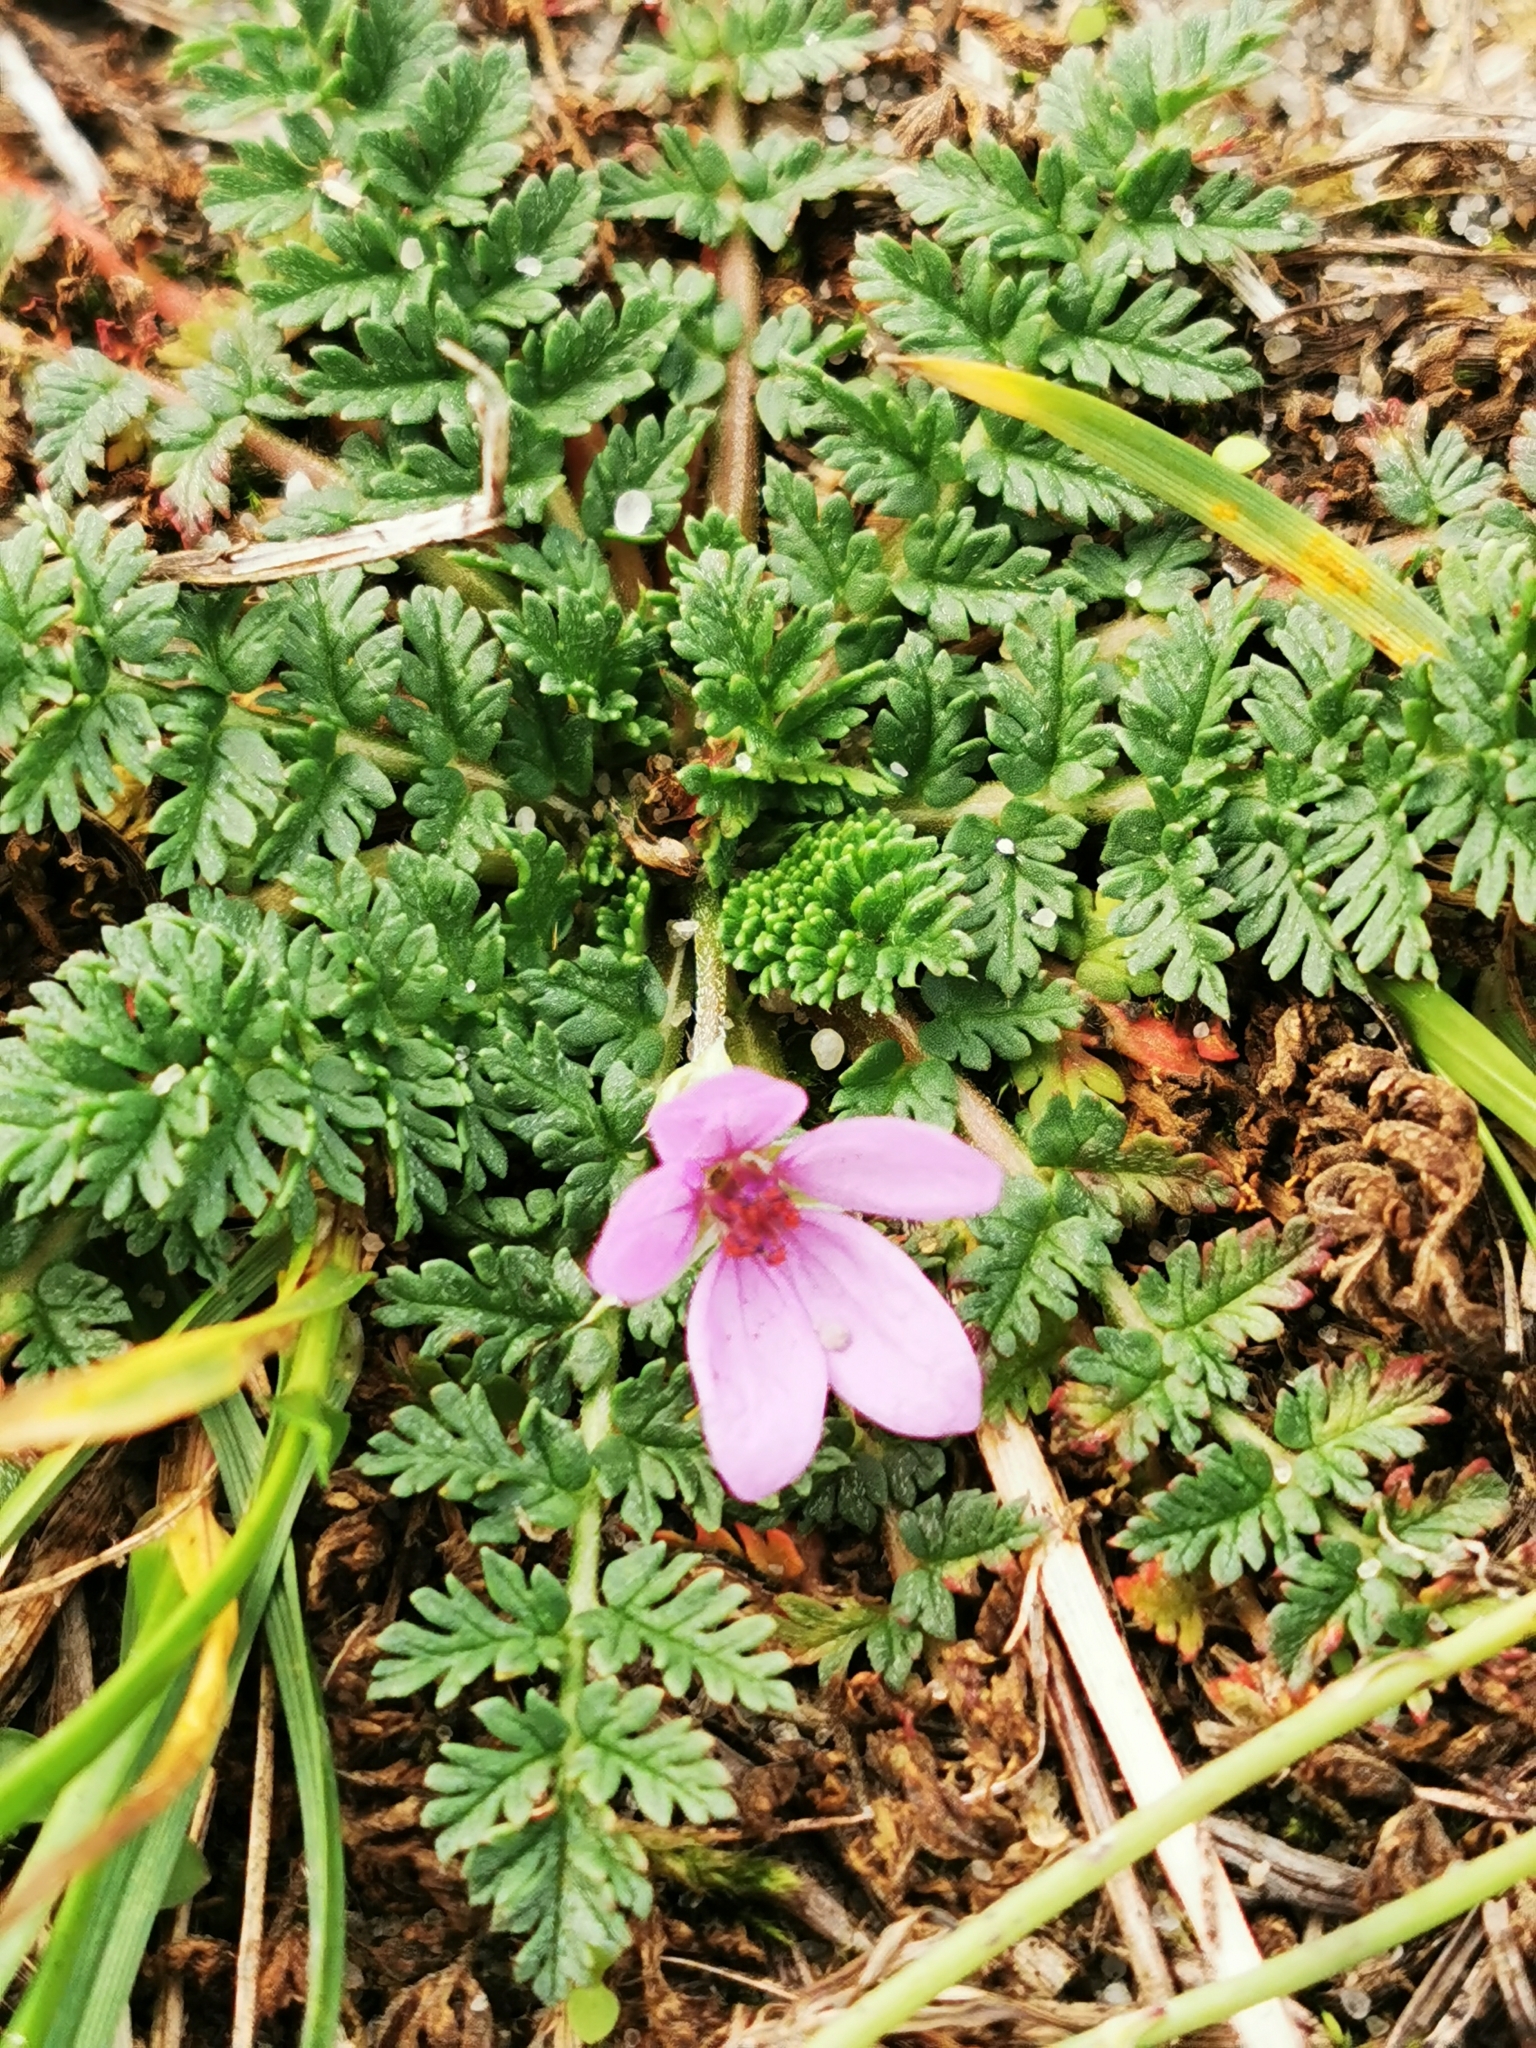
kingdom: Plantae
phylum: Tracheophyta
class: Magnoliopsida
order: Geraniales
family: Geraniaceae
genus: Erodium
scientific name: Erodium cicutarium
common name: Common stork's-bill
